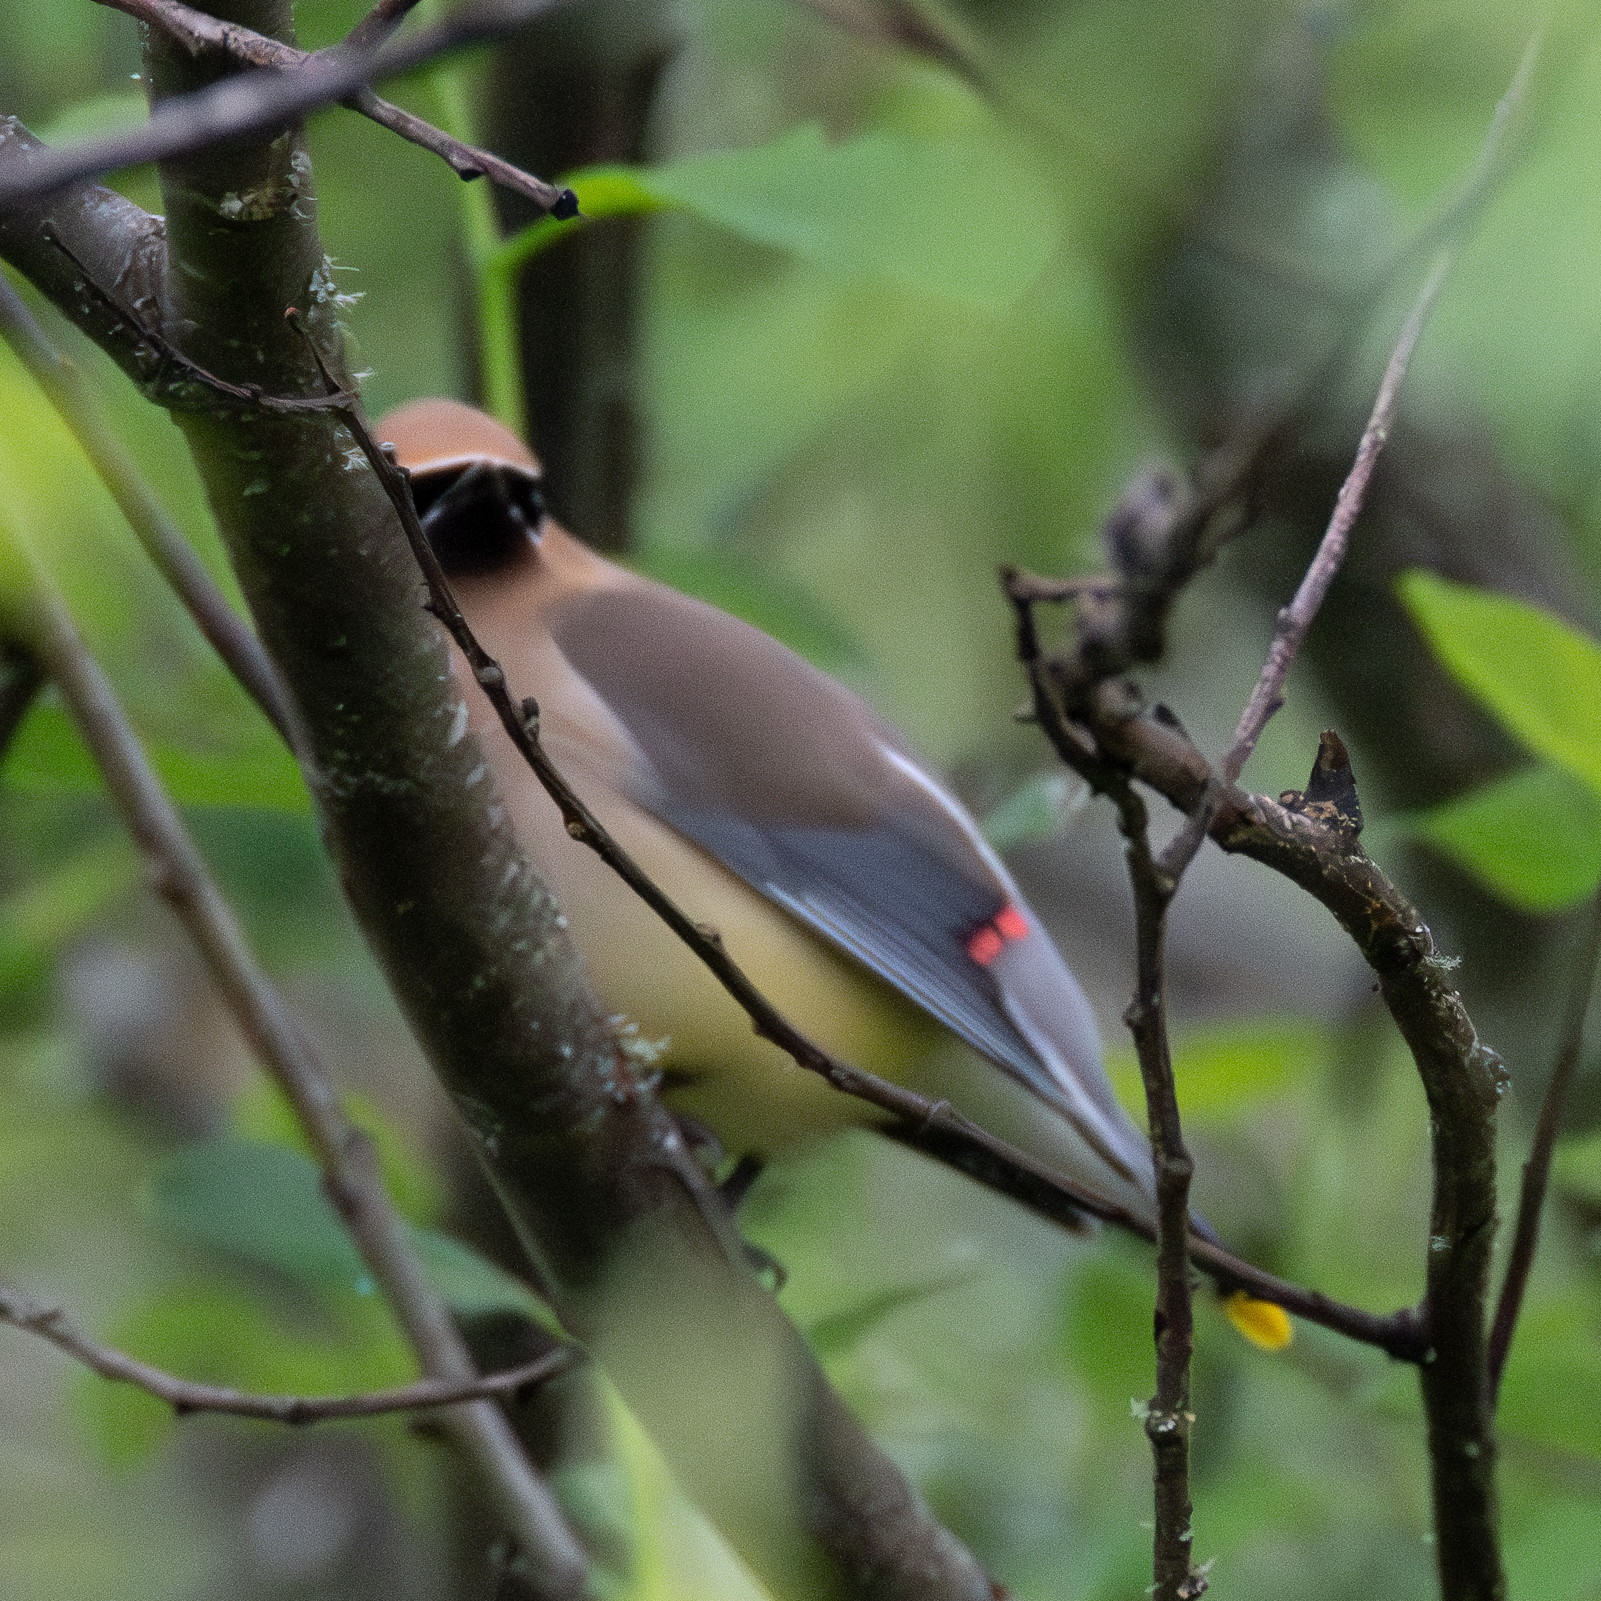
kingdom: Animalia
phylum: Chordata
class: Aves
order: Passeriformes
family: Bombycillidae
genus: Bombycilla
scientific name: Bombycilla cedrorum
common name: Cedar waxwing
